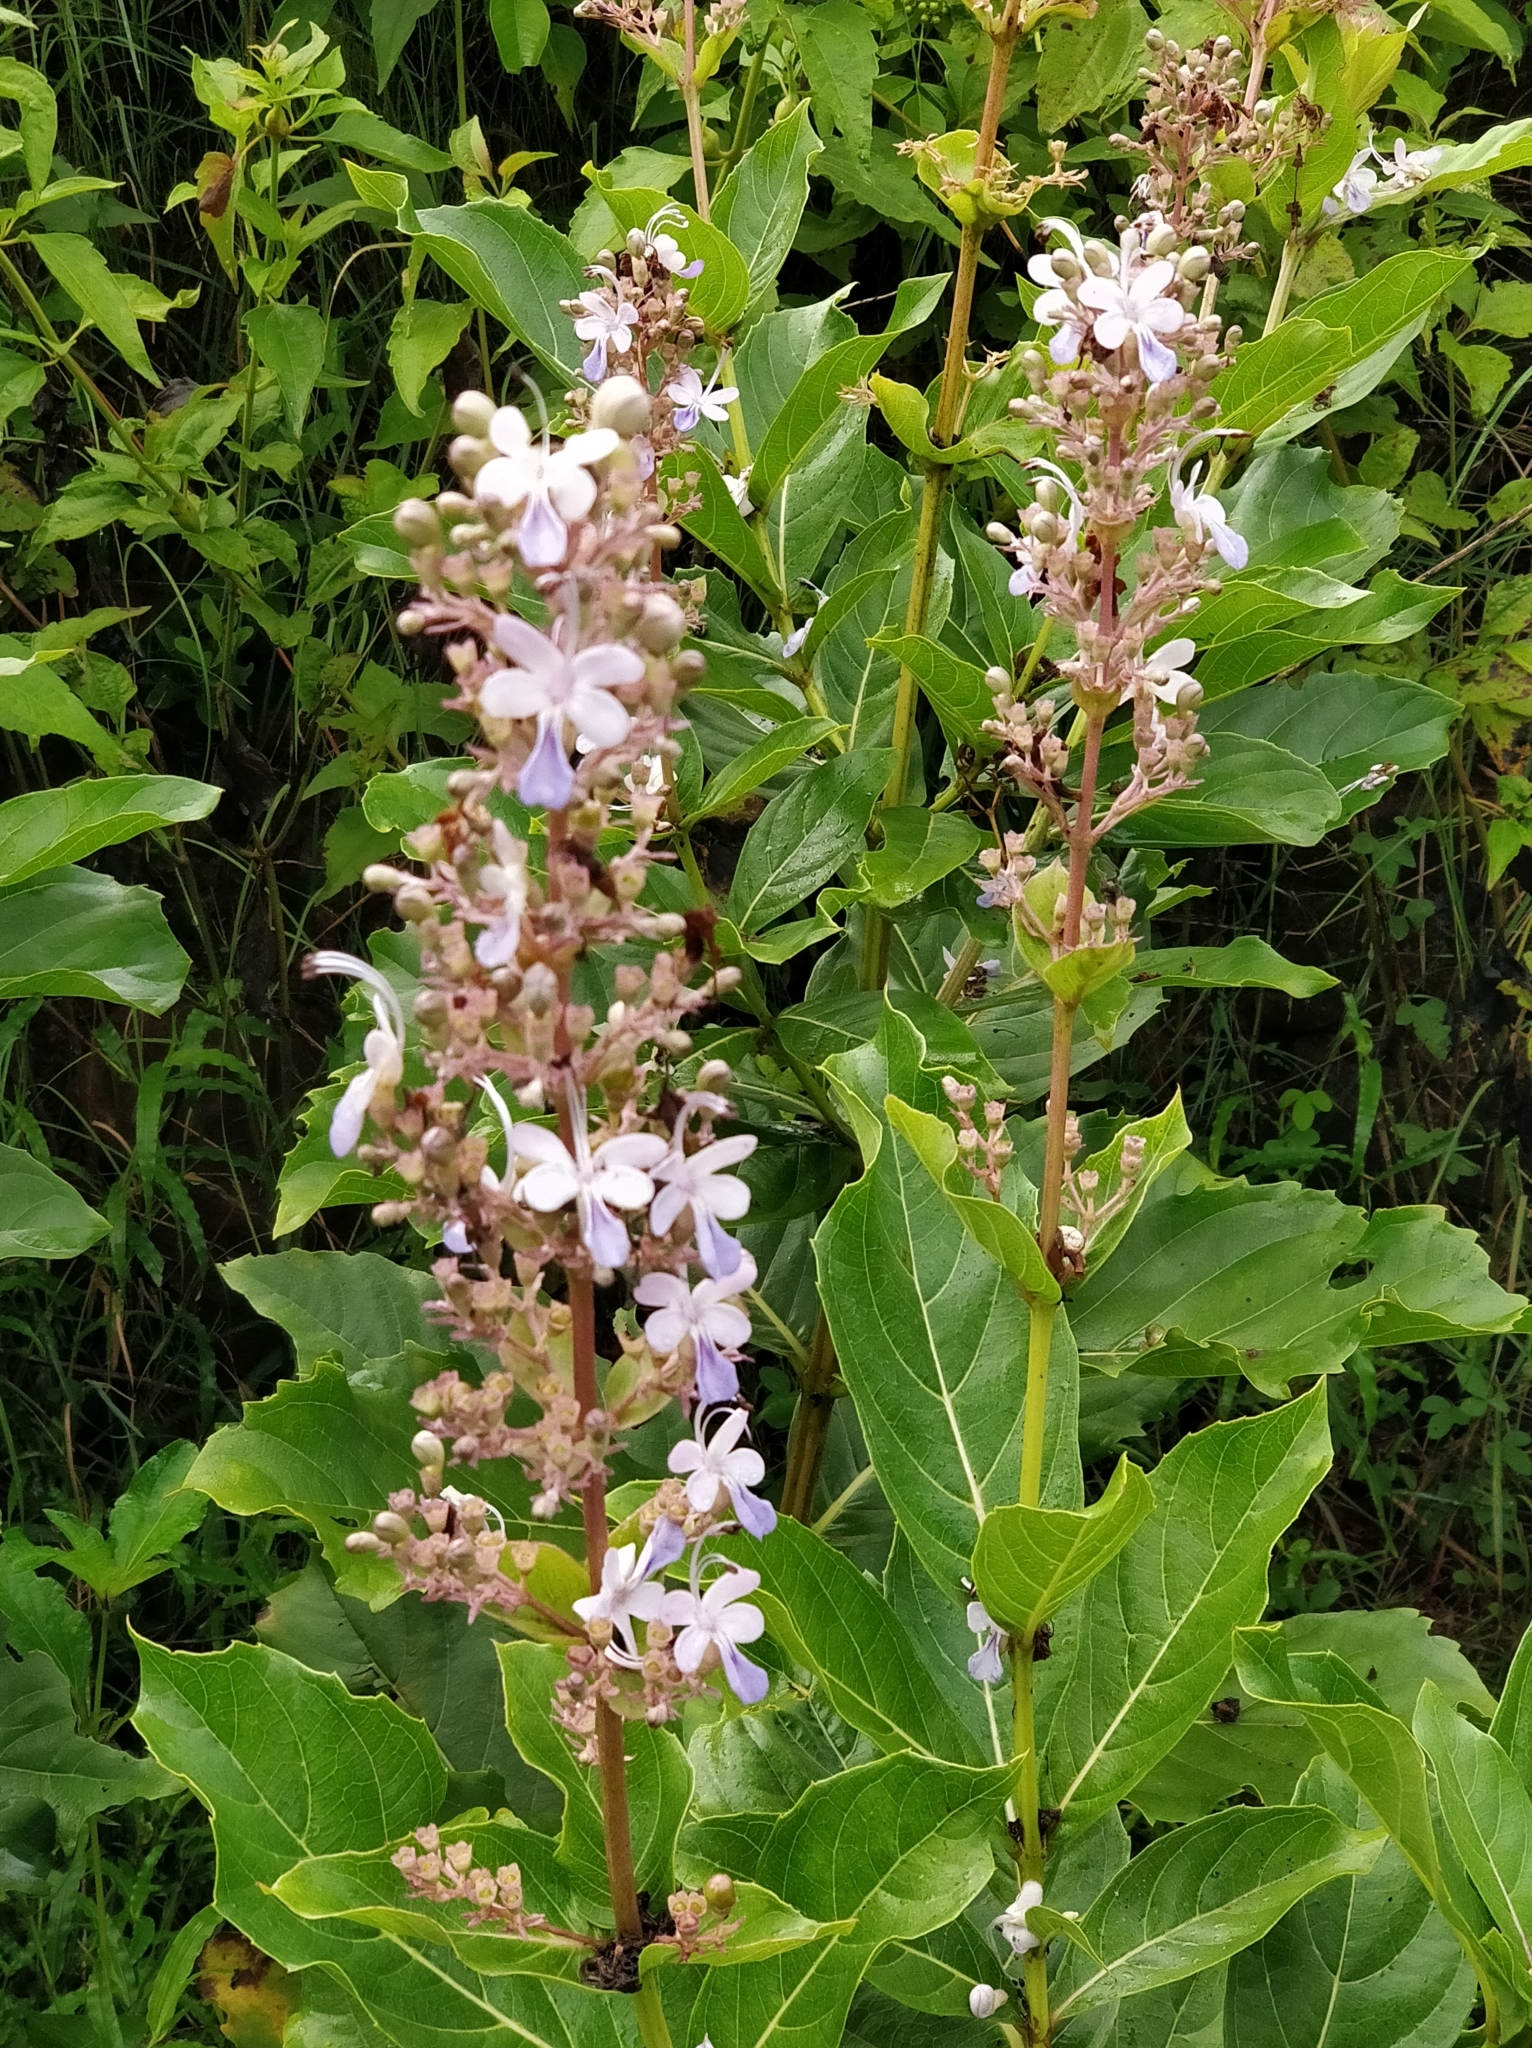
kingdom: Plantae
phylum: Tracheophyta
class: Magnoliopsida
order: Lamiales
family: Lamiaceae
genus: Rotheca
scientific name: Rotheca serrata
